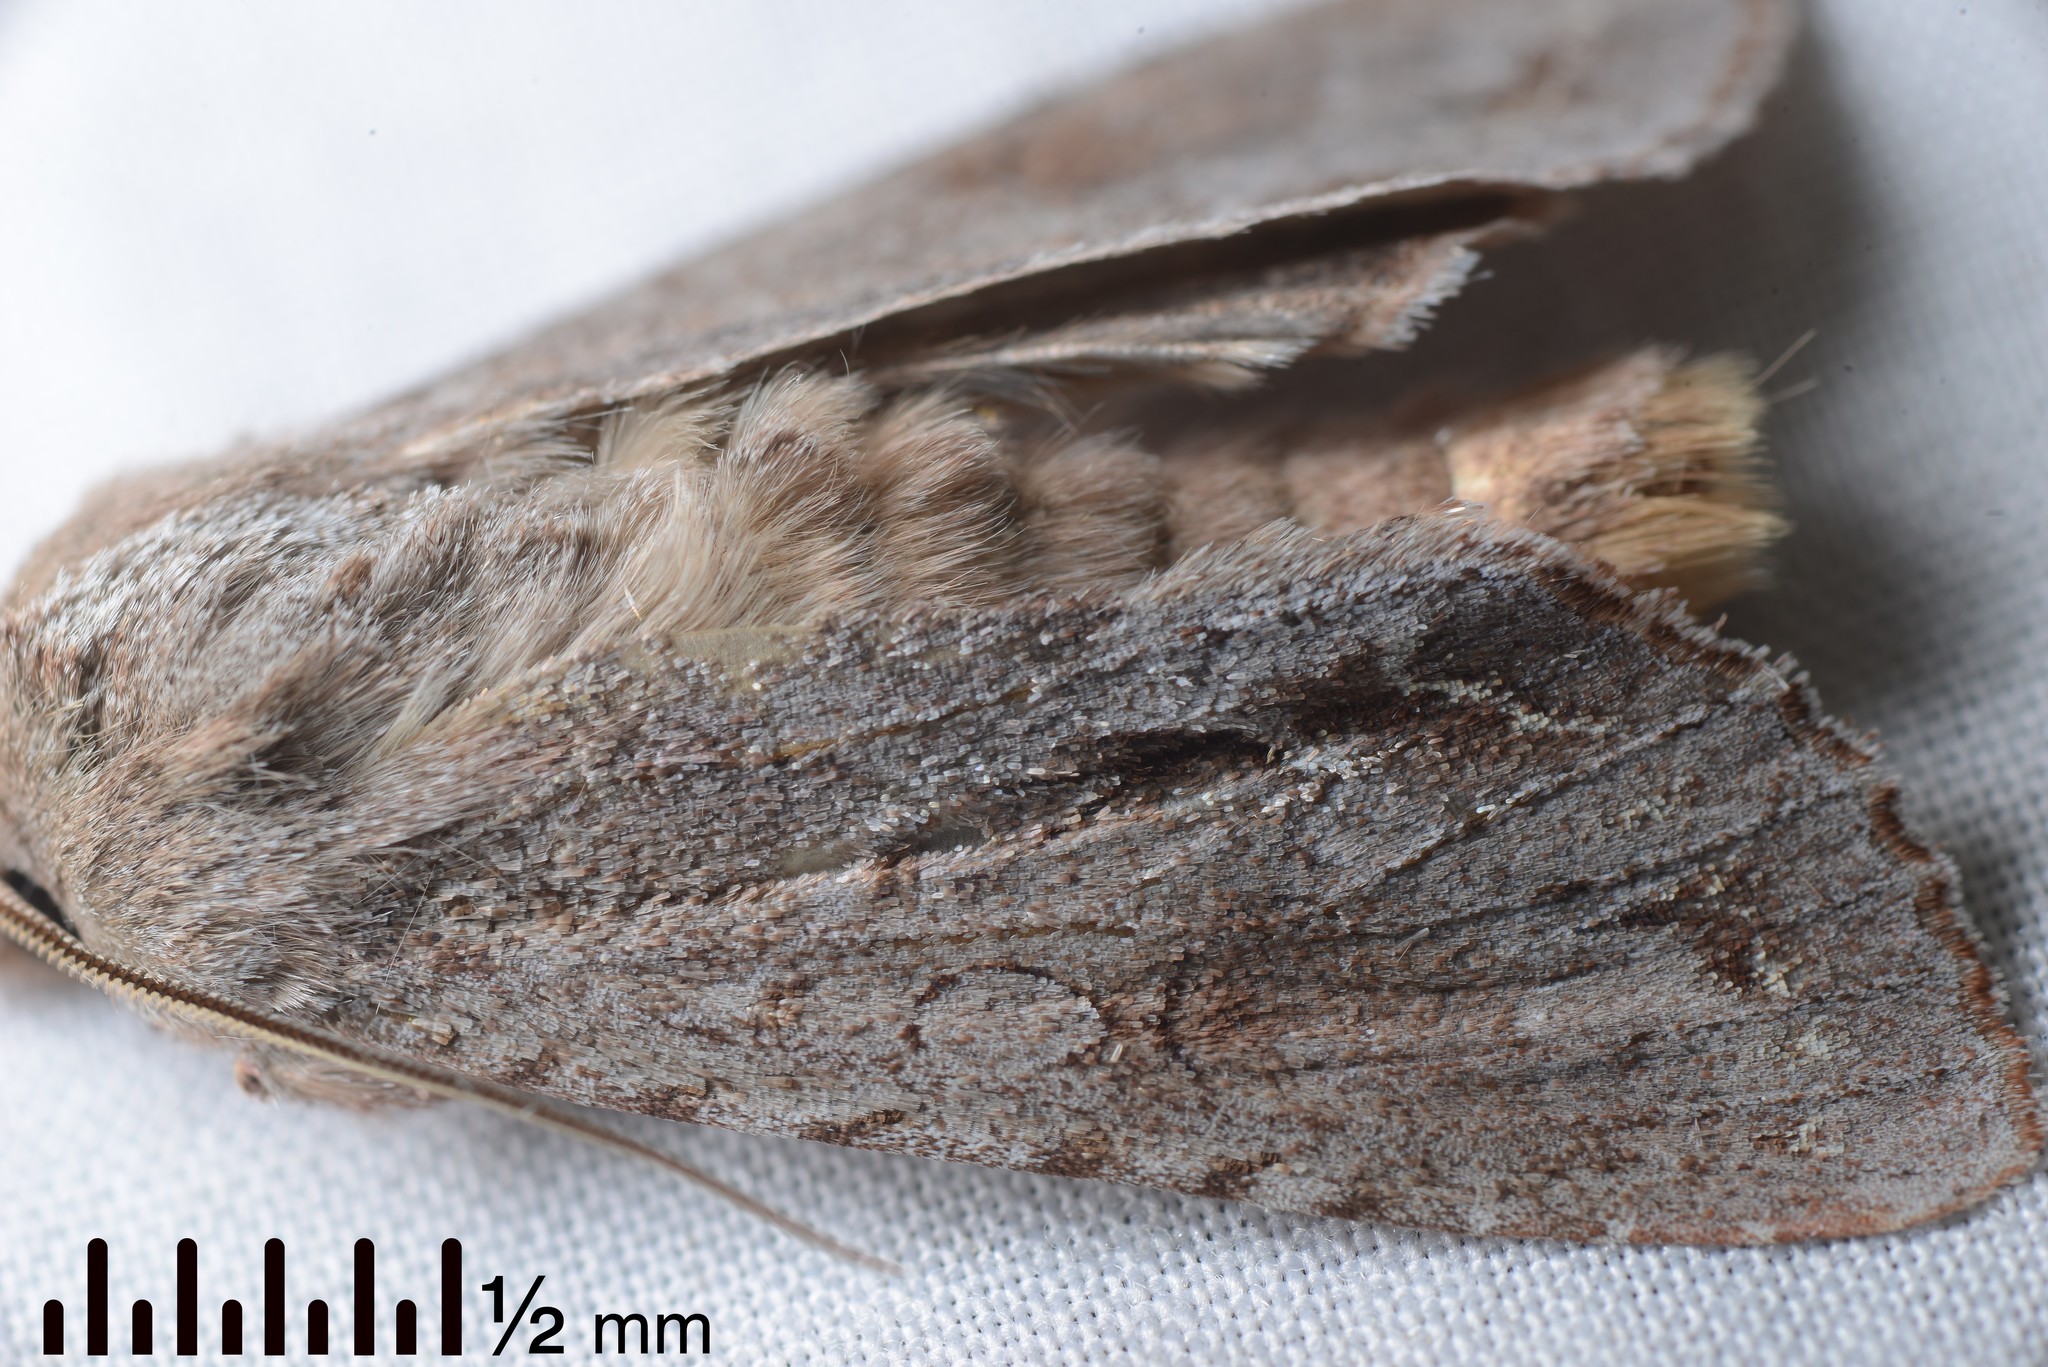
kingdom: Animalia
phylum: Arthropoda
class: Insecta
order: Lepidoptera
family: Noctuidae
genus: Ichneutica
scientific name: Ichneutica
